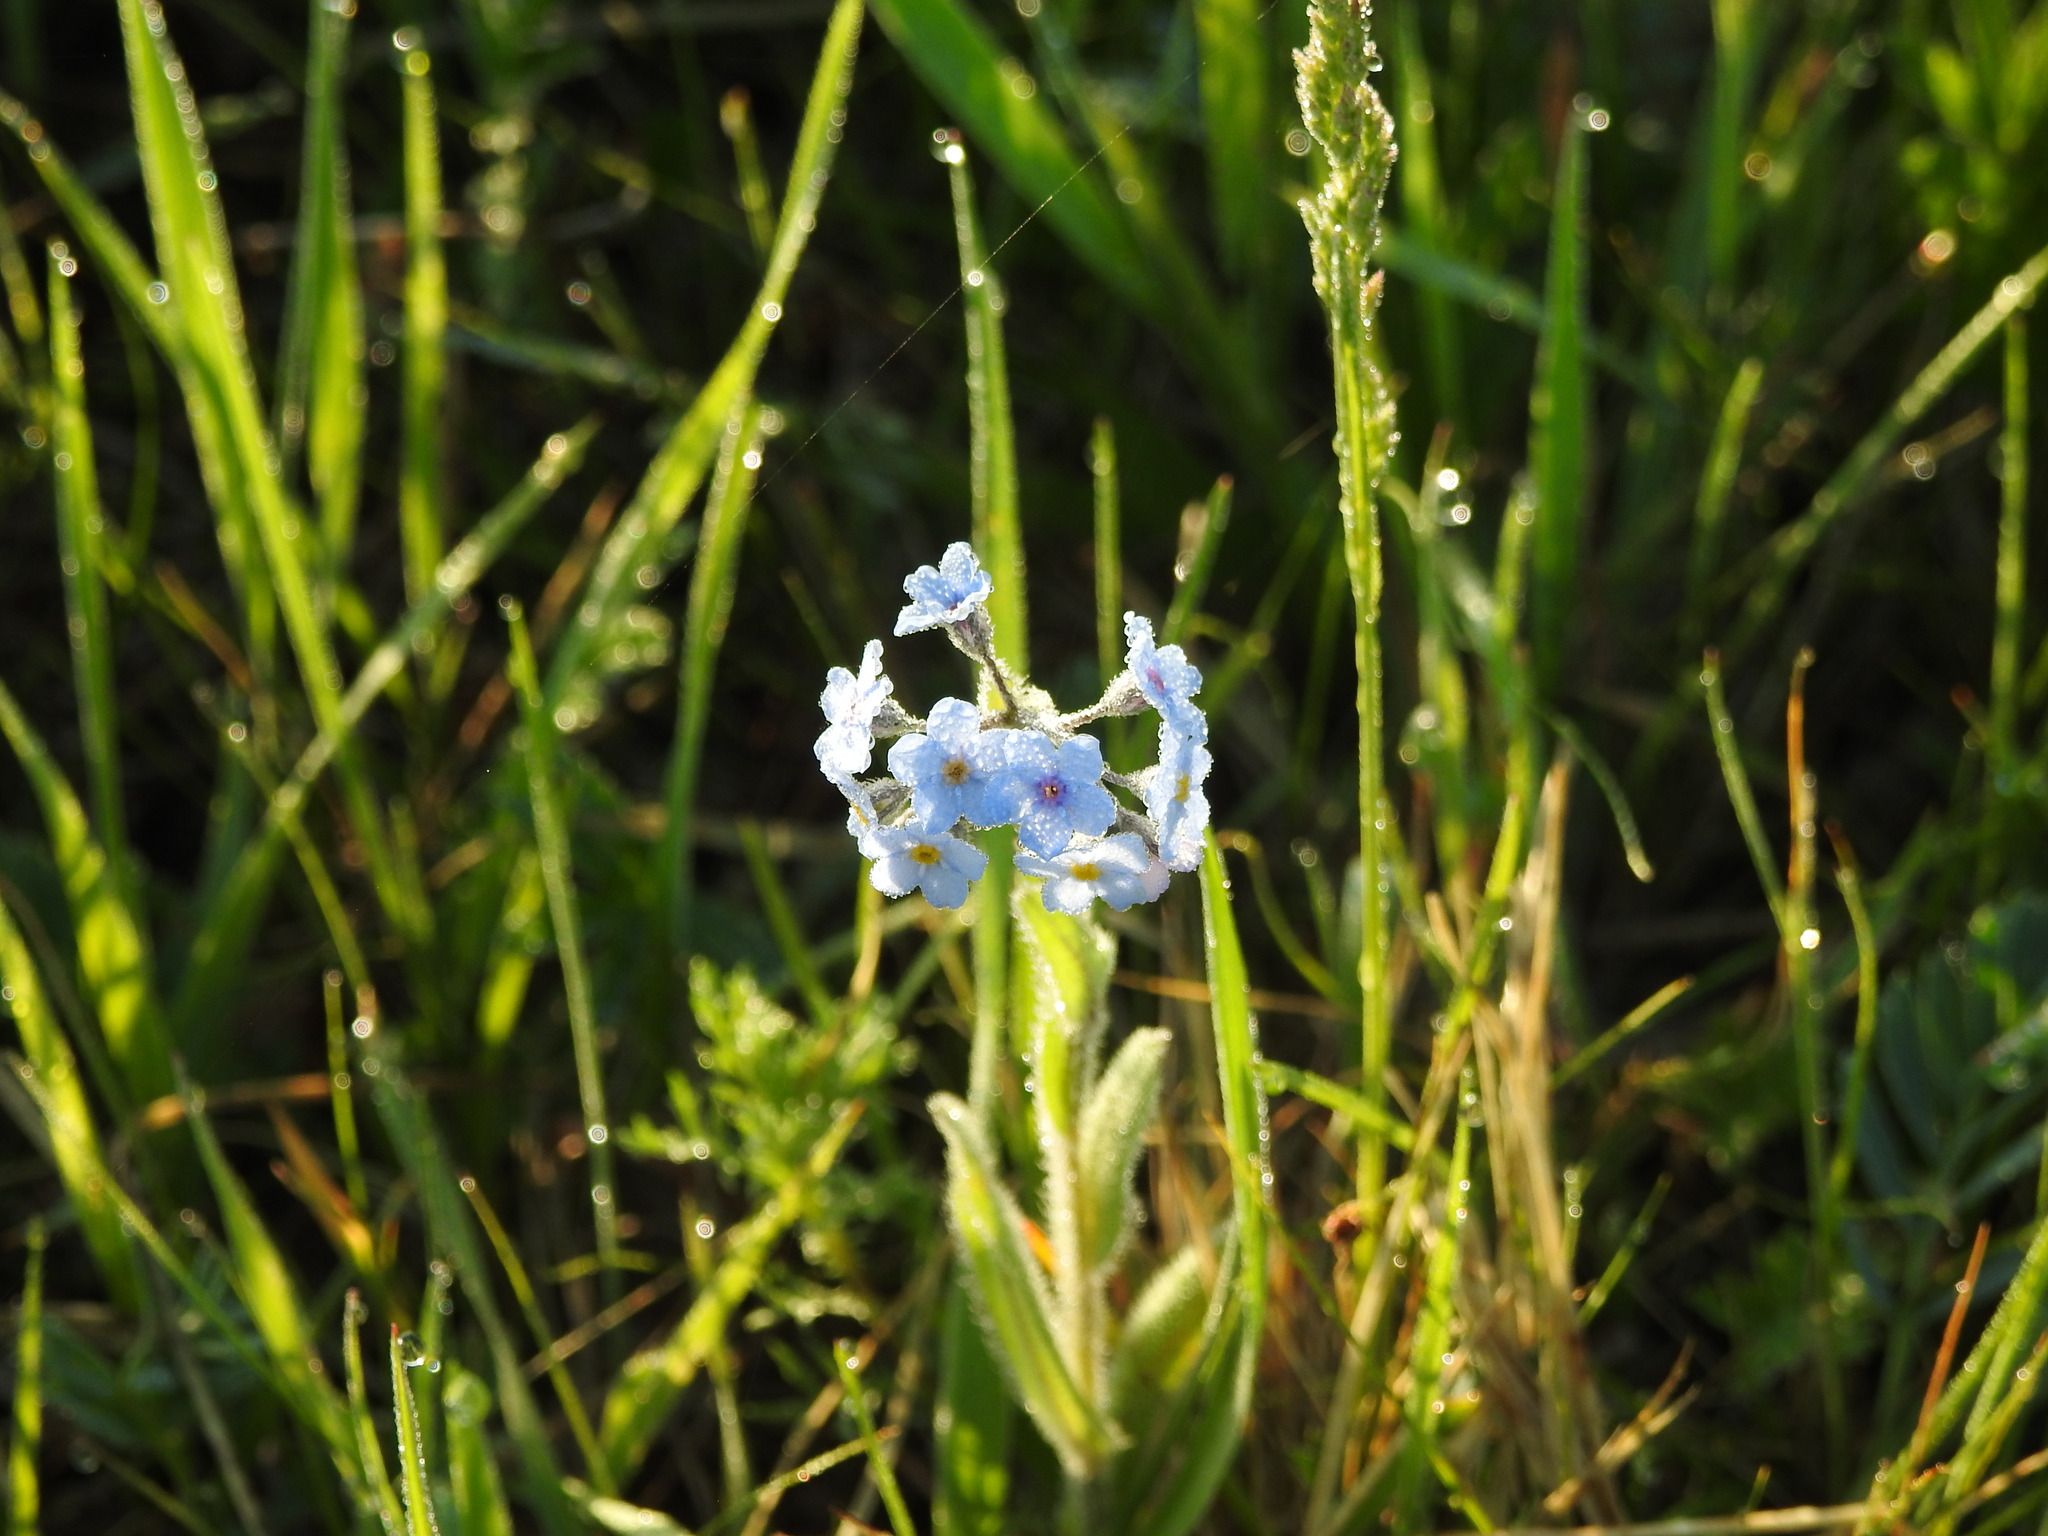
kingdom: Plantae
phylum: Tracheophyta
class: Magnoliopsida
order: Boraginales
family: Boraginaceae
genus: Myosotis
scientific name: Myosotis imitata
